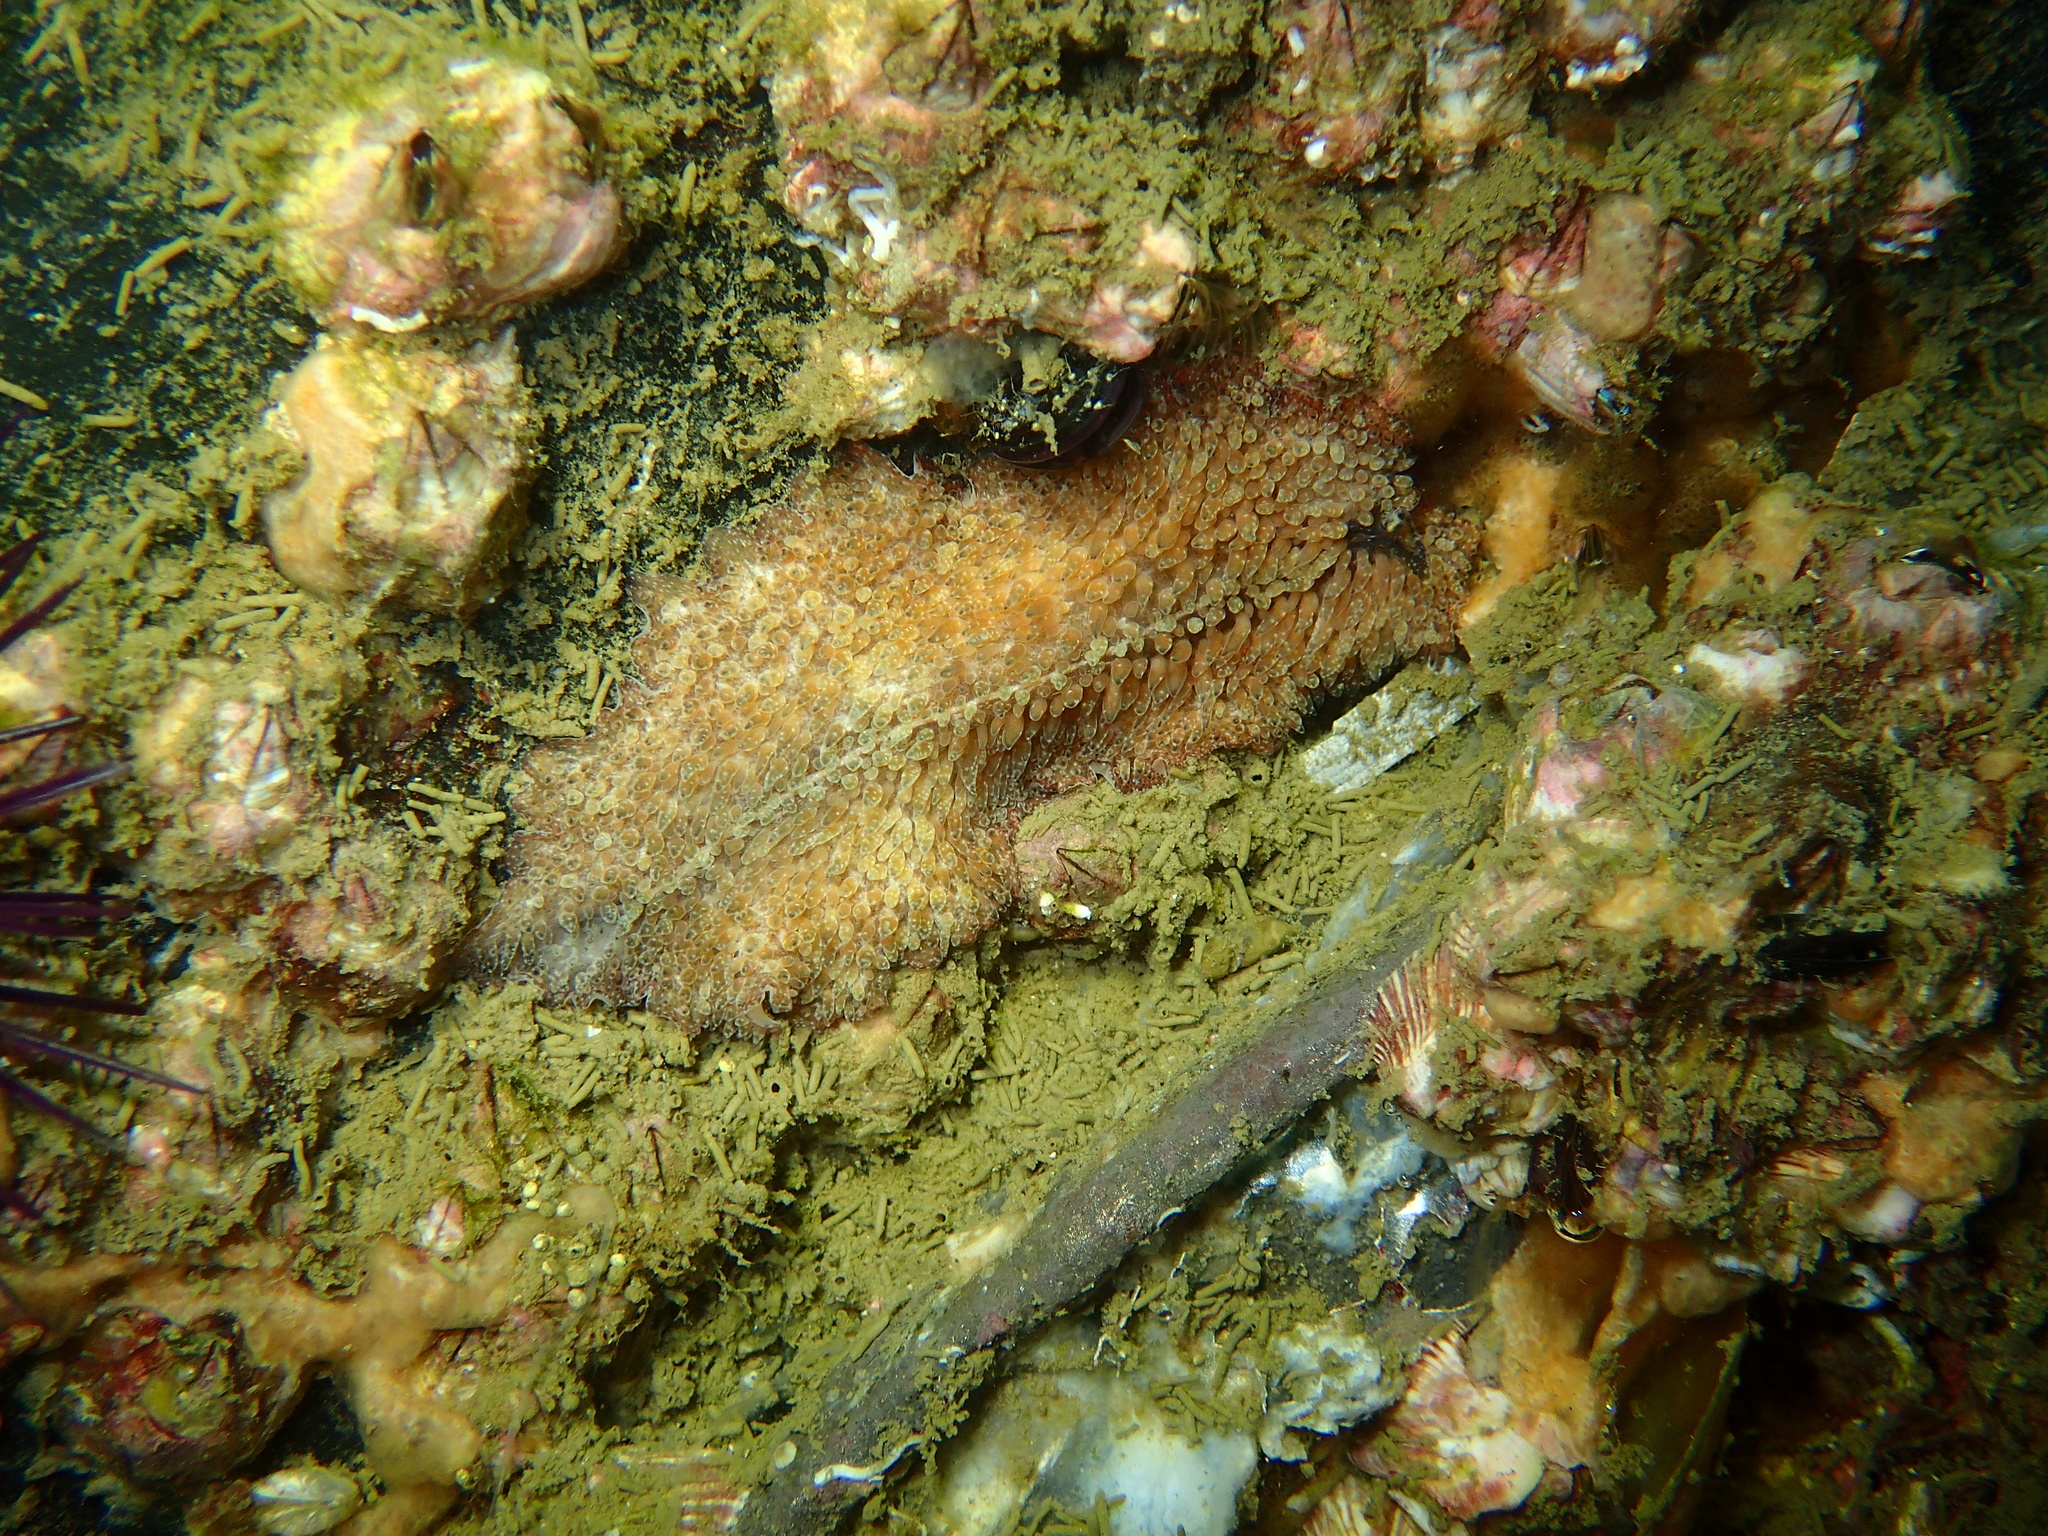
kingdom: Animalia
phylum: Platyhelminthes
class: Turbellaria
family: Pseudocerotidae
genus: Thysanozoon
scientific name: Thysanozoon brocchii
